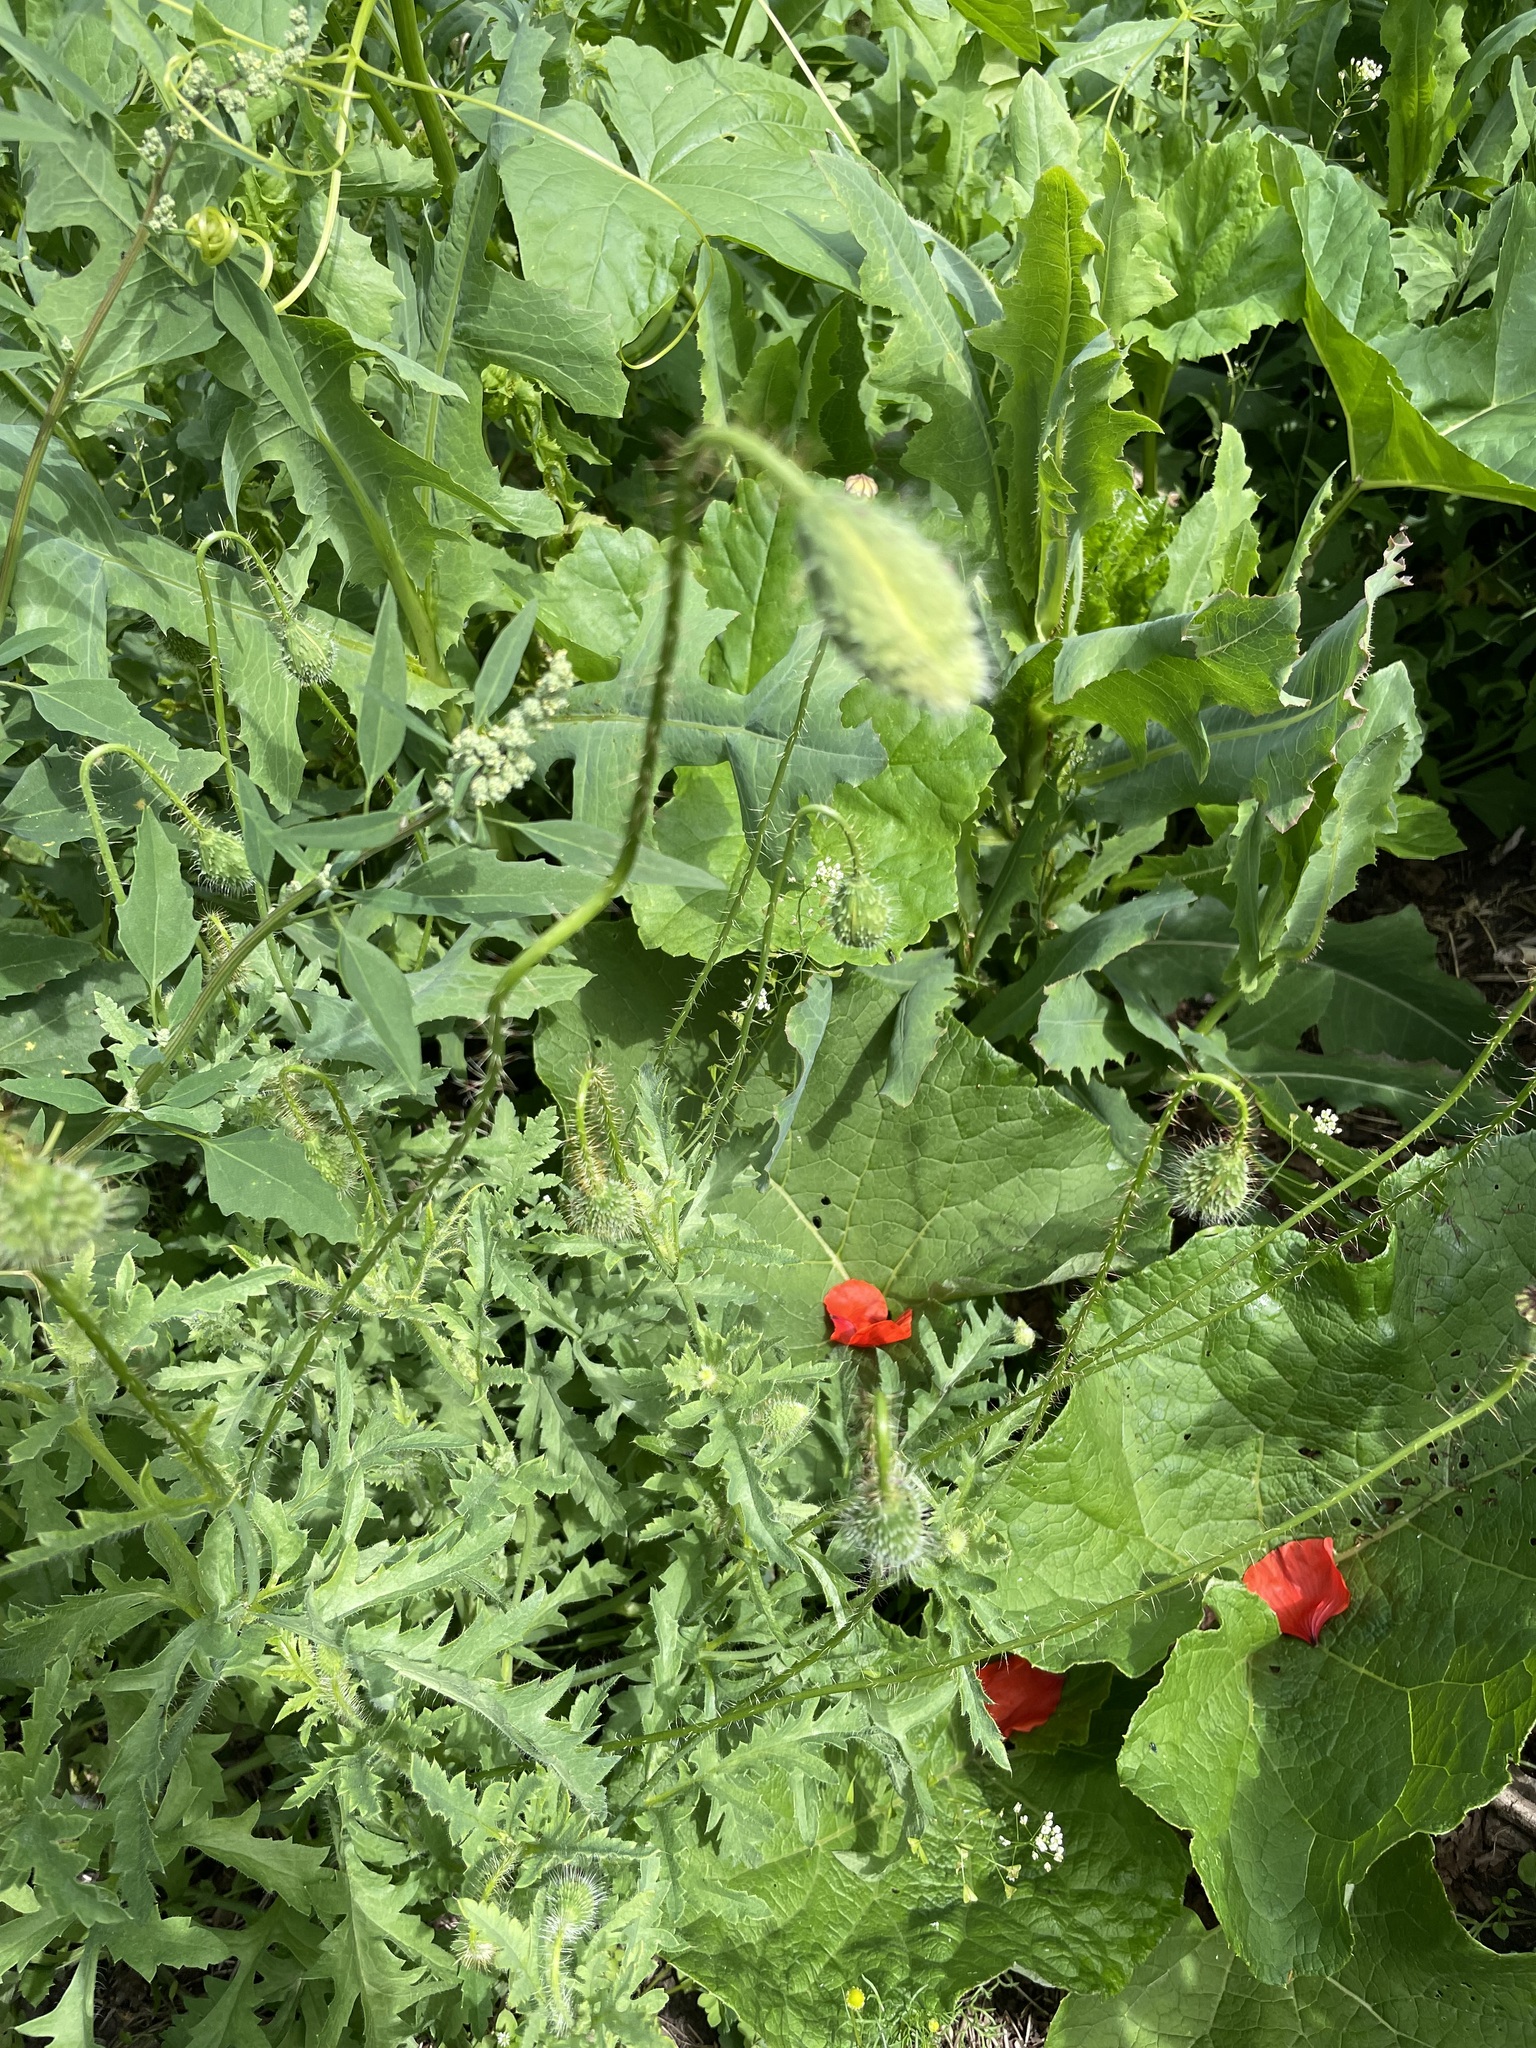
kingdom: Plantae
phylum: Tracheophyta
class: Magnoliopsida
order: Ranunculales
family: Papaveraceae
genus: Papaver
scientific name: Papaver rhoeas
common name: Corn poppy
